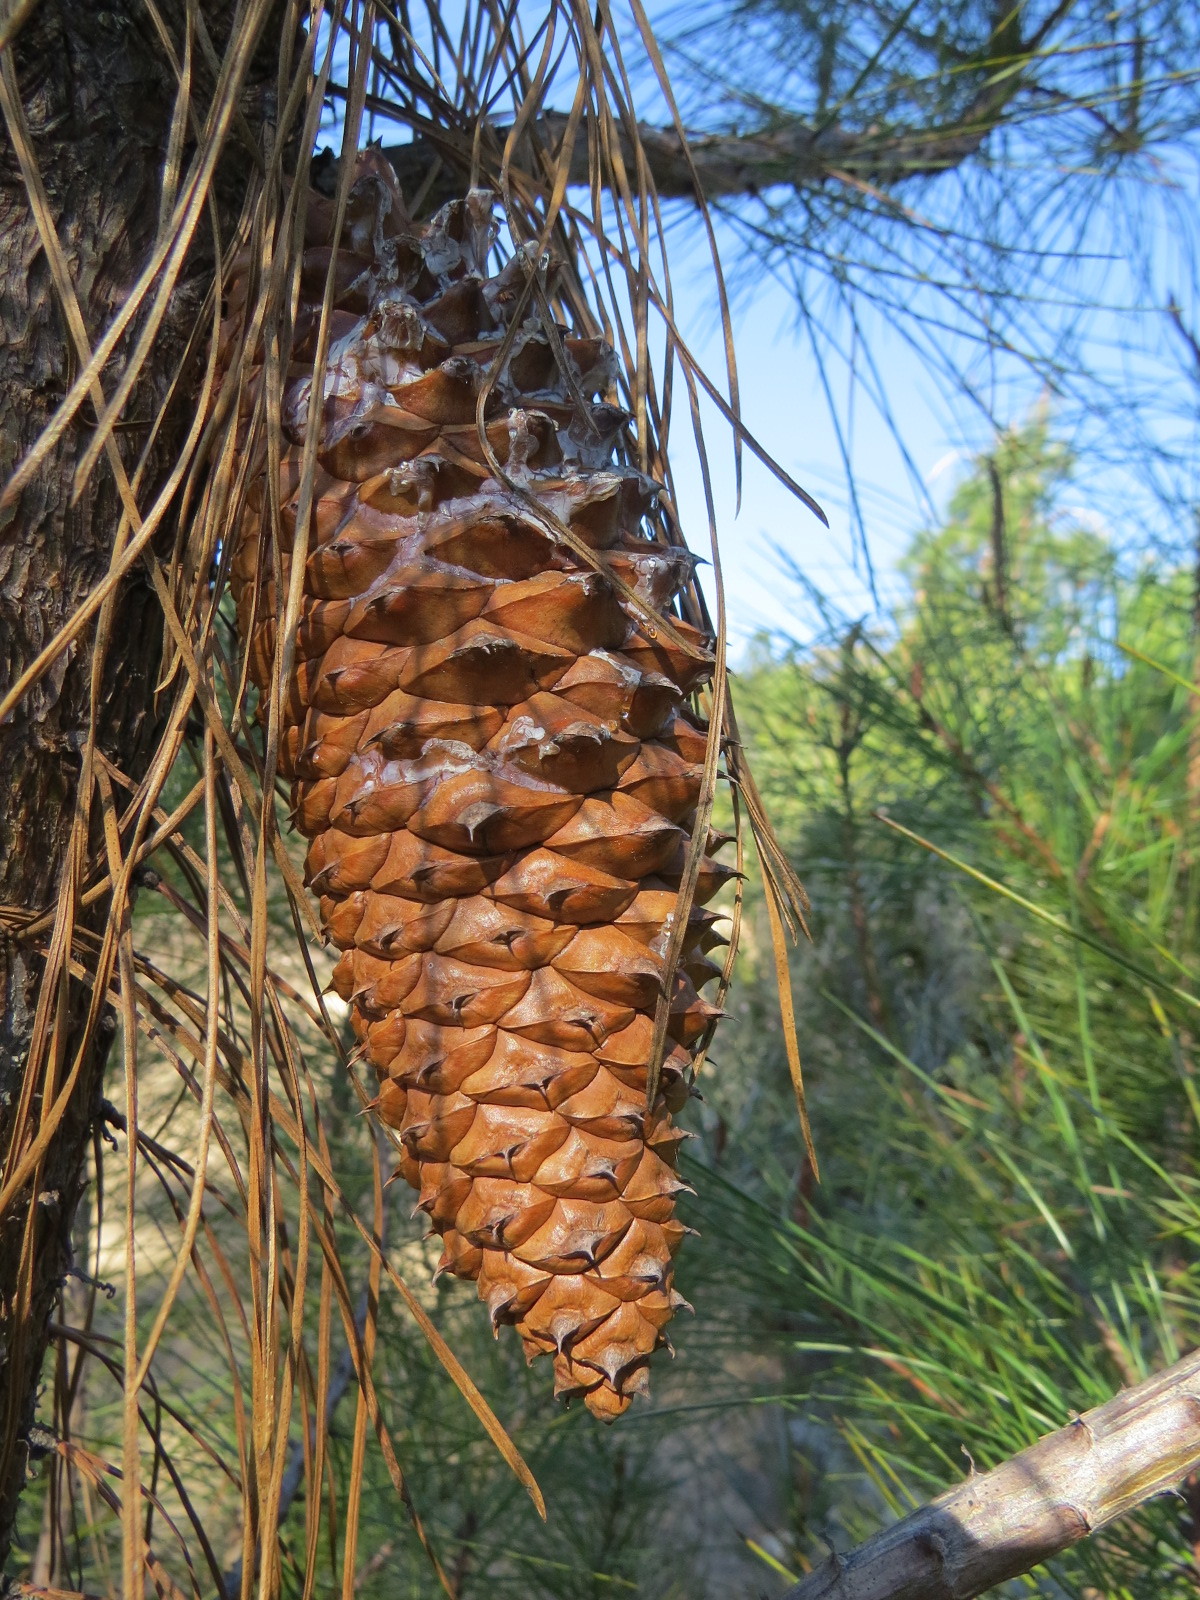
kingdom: Plantae
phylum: Tracheophyta
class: Pinopsida
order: Pinales
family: Pinaceae
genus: Pinus
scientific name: Pinus attenuata
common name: Knobcone pine
